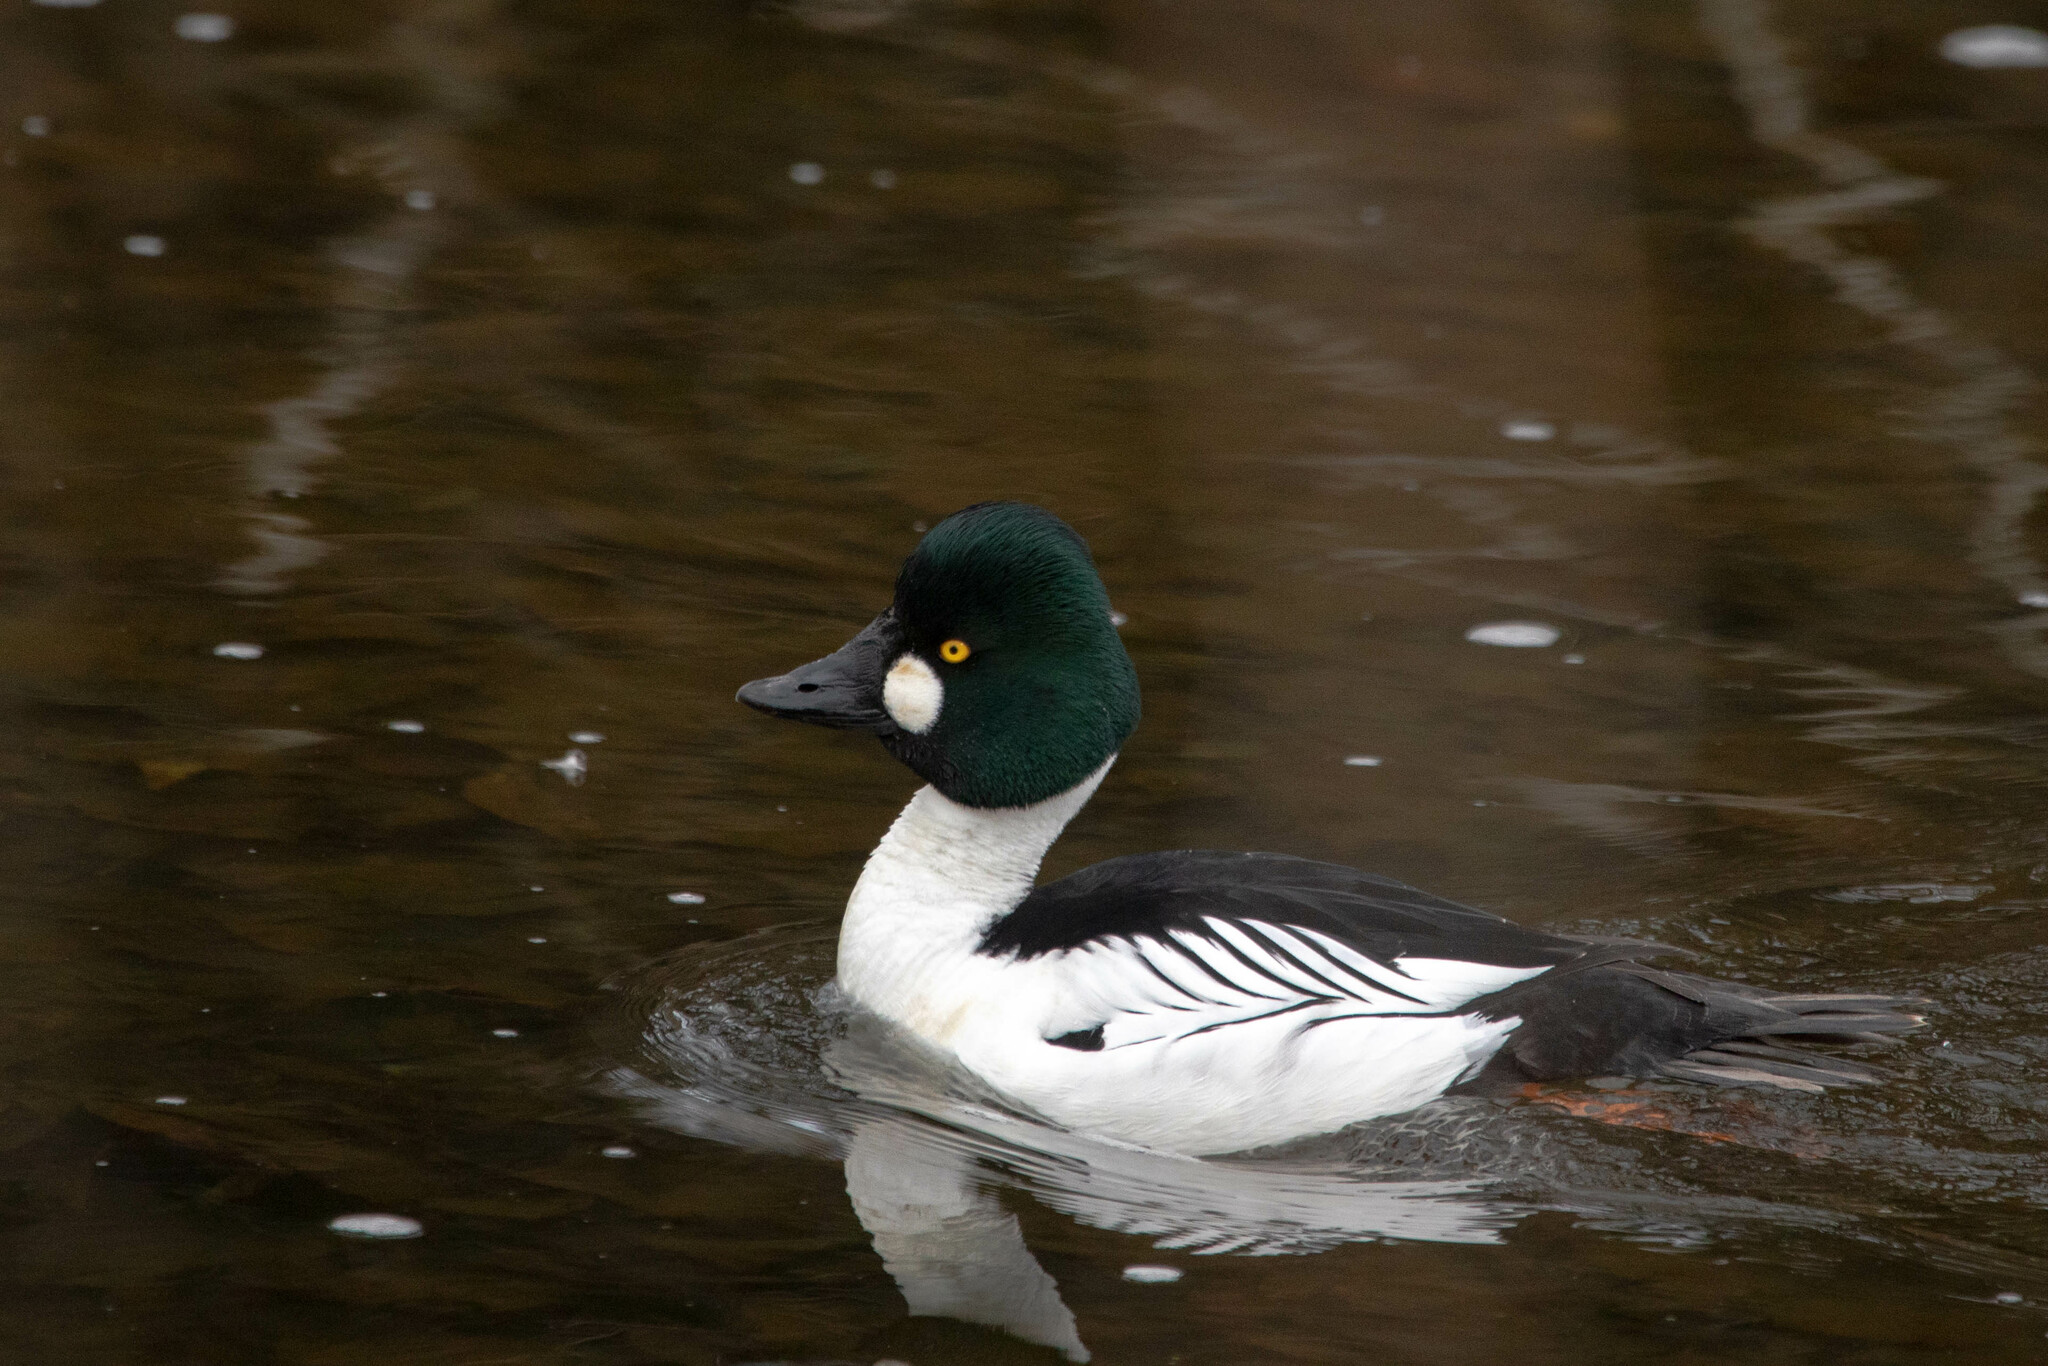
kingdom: Animalia
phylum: Chordata
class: Aves
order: Anseriformes
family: Anatidae
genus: Bucephala
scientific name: Bucephala clangula
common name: Common goldeneye
